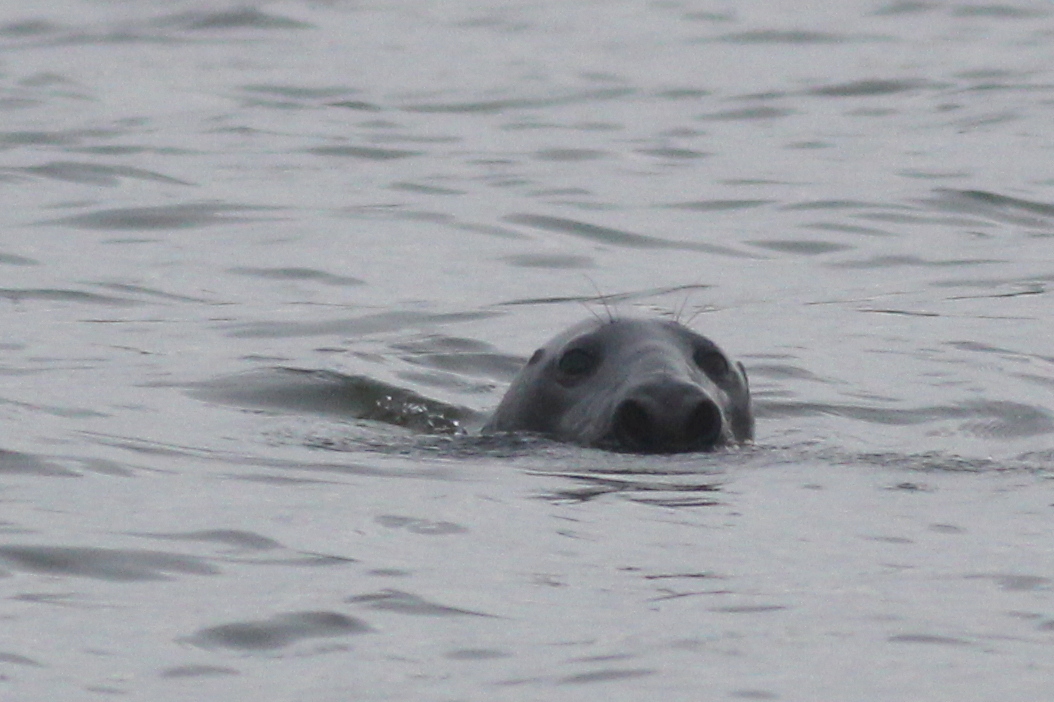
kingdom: Animalia
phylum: Chordata
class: Mammalia
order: Carnivora
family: Phocidae
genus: Halichoerus
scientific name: Halichoerus grypus
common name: Grey seal
